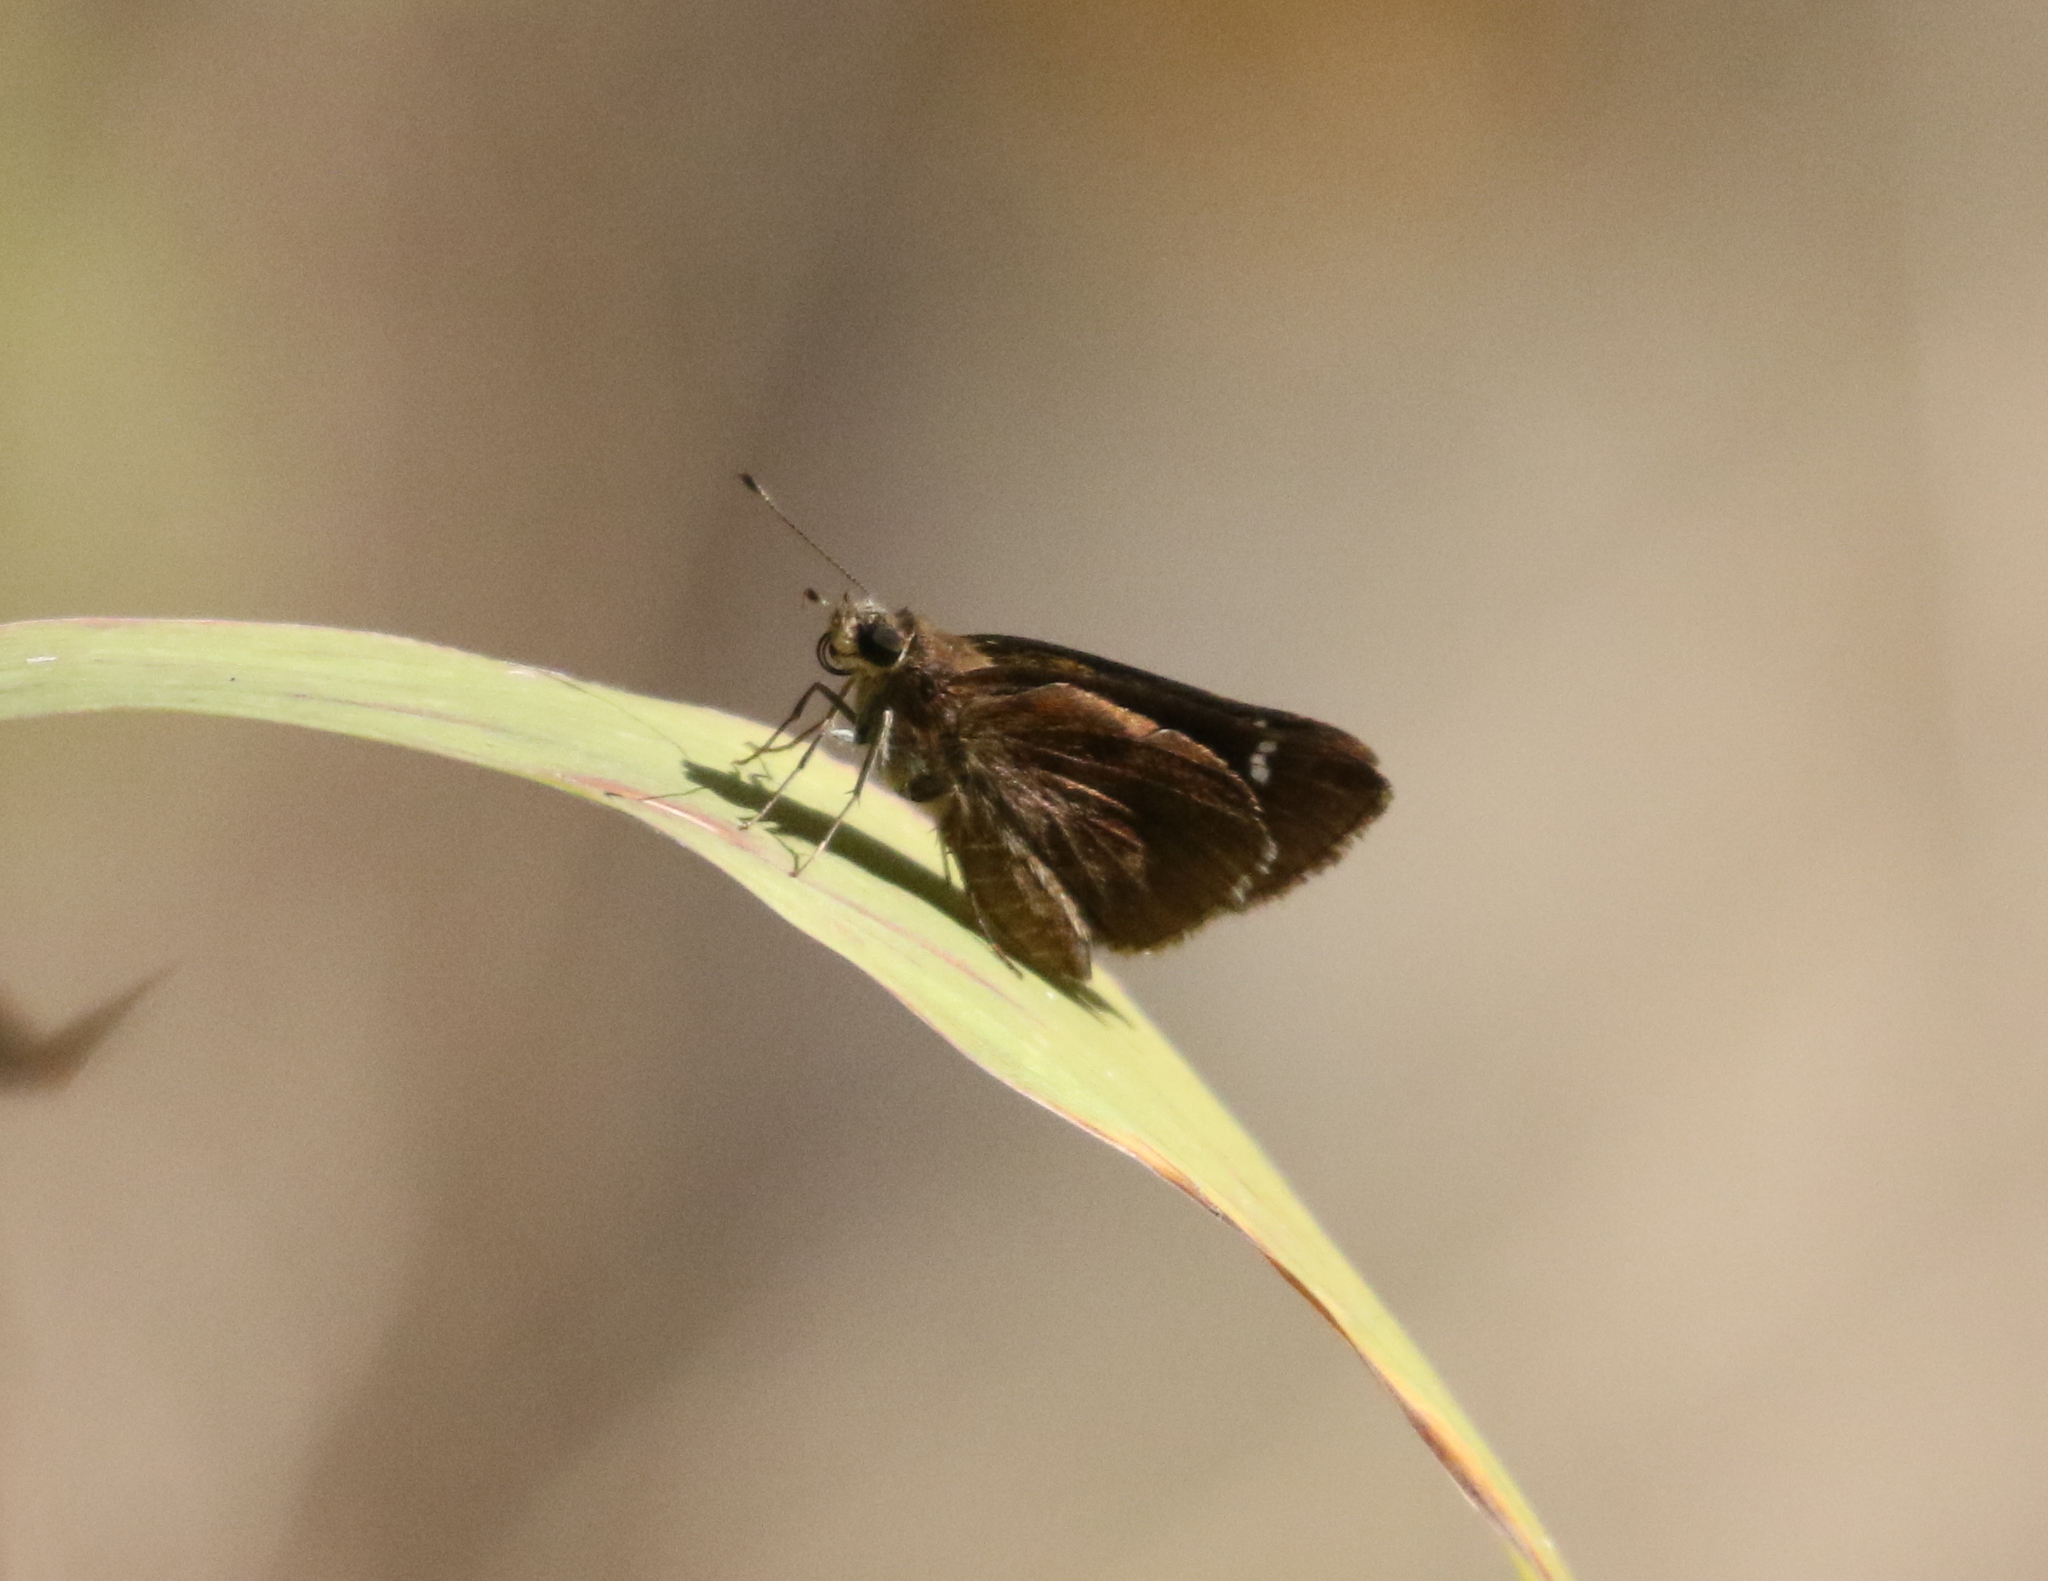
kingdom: Animalia
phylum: Arthropoda
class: Insecta
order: Lepidoptera
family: Hesperiidae
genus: Lerema
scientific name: Lerema accius
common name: Clouded skipper
